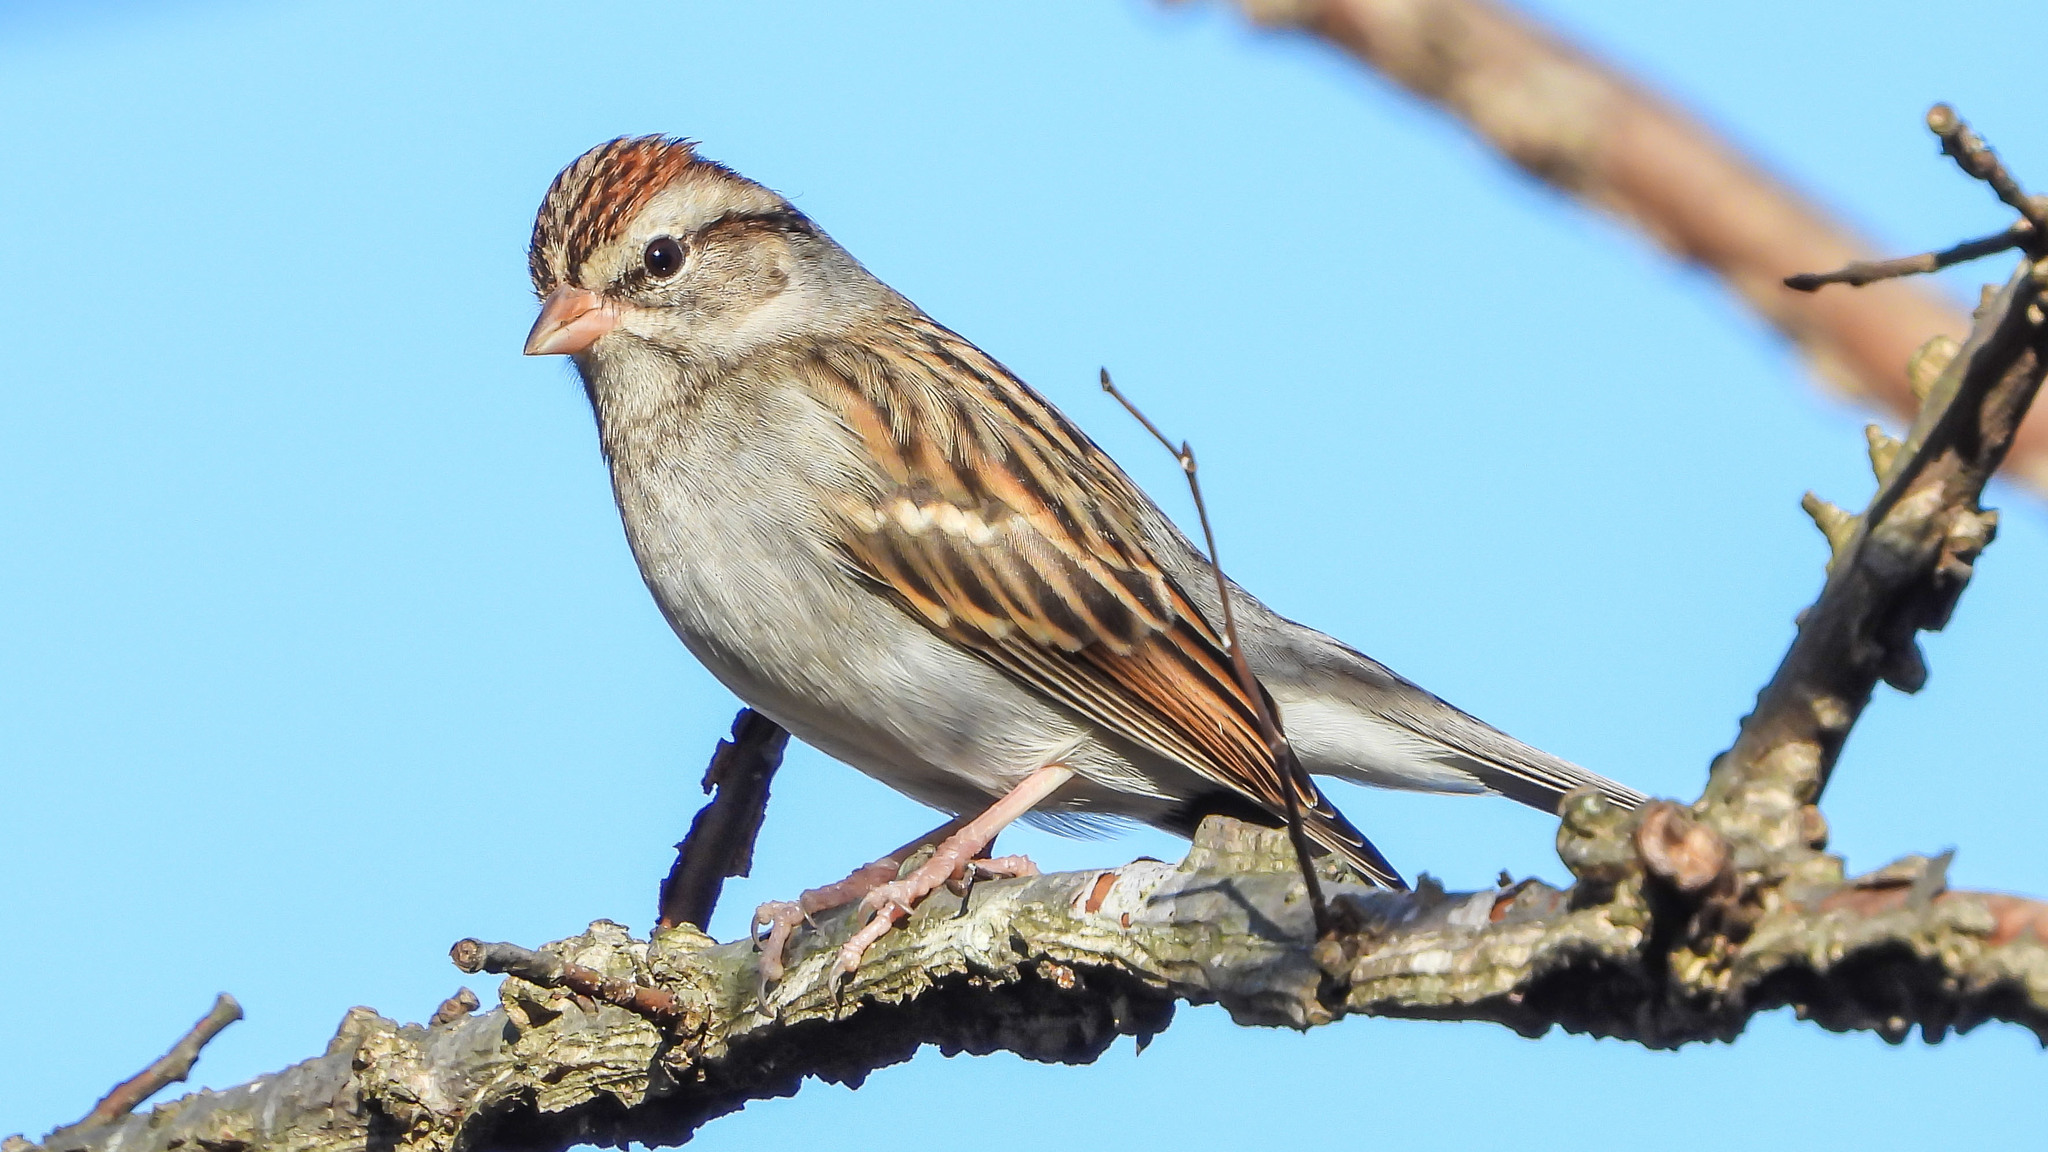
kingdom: Animalia
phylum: Chordata
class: Aves
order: Passeriformes
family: Passerellidae
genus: Spizella
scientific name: Spizella passerina
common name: Chipping sparrow
